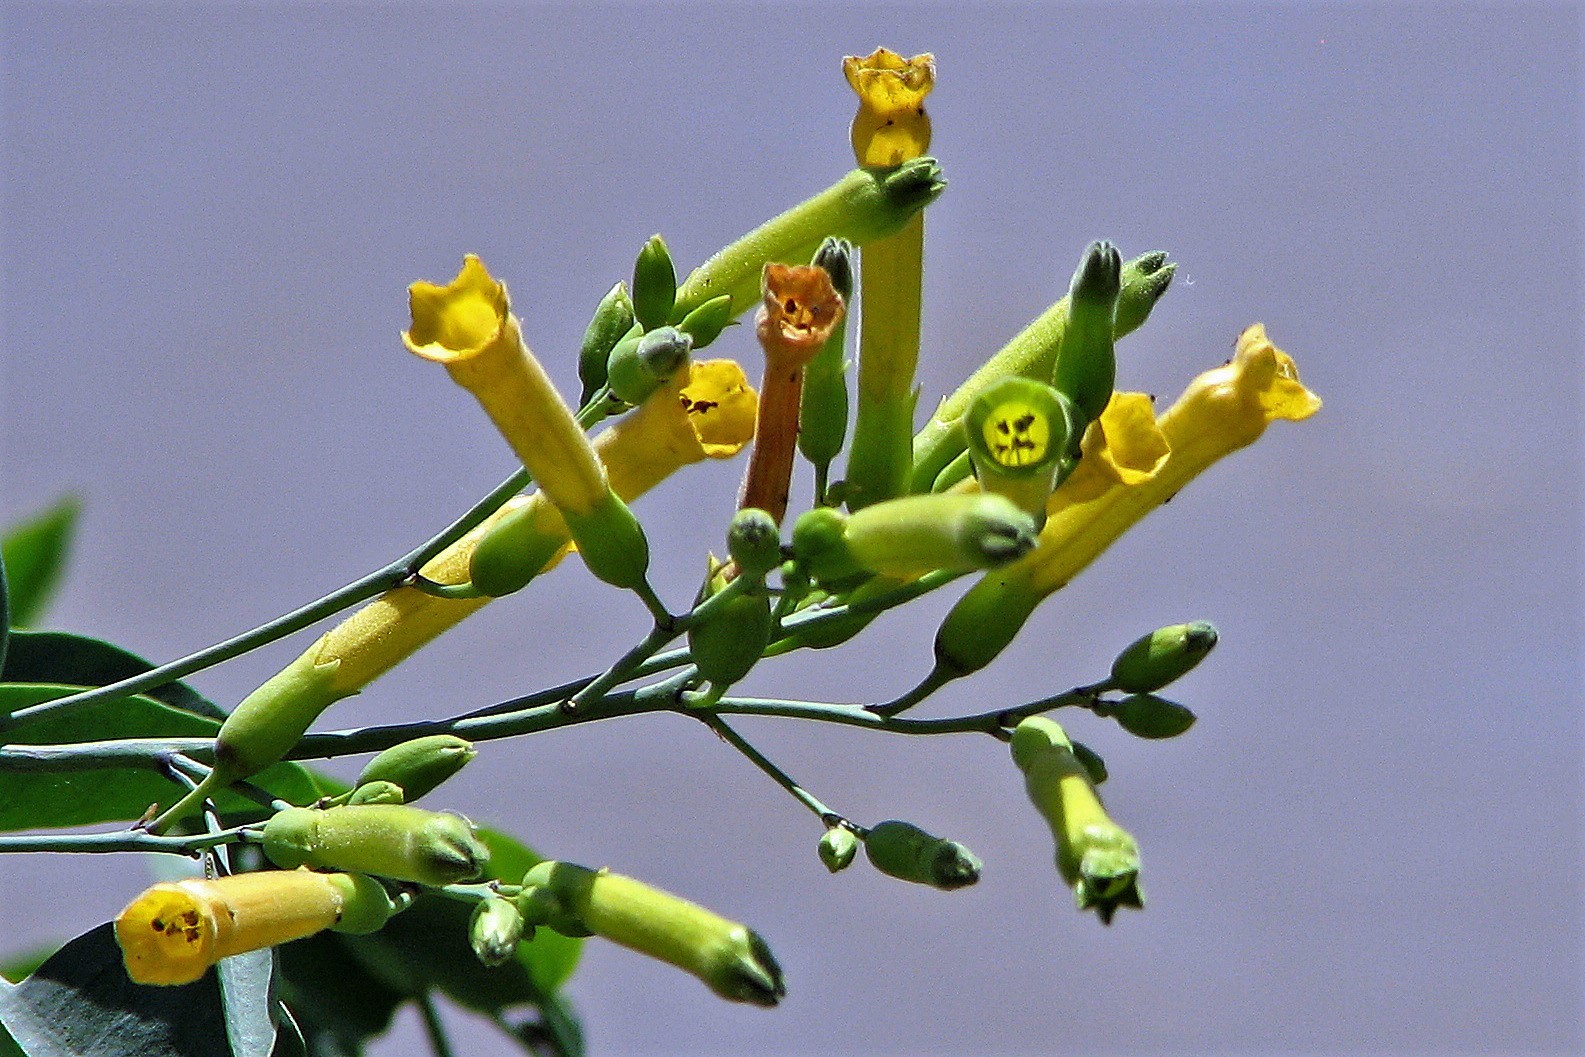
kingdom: Plantae
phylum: Tracheophyta
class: Magnoliopsida
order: Solanales
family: Solanaceae
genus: Nicotiana
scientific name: Nicotiana glauca
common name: Tree tobacco
